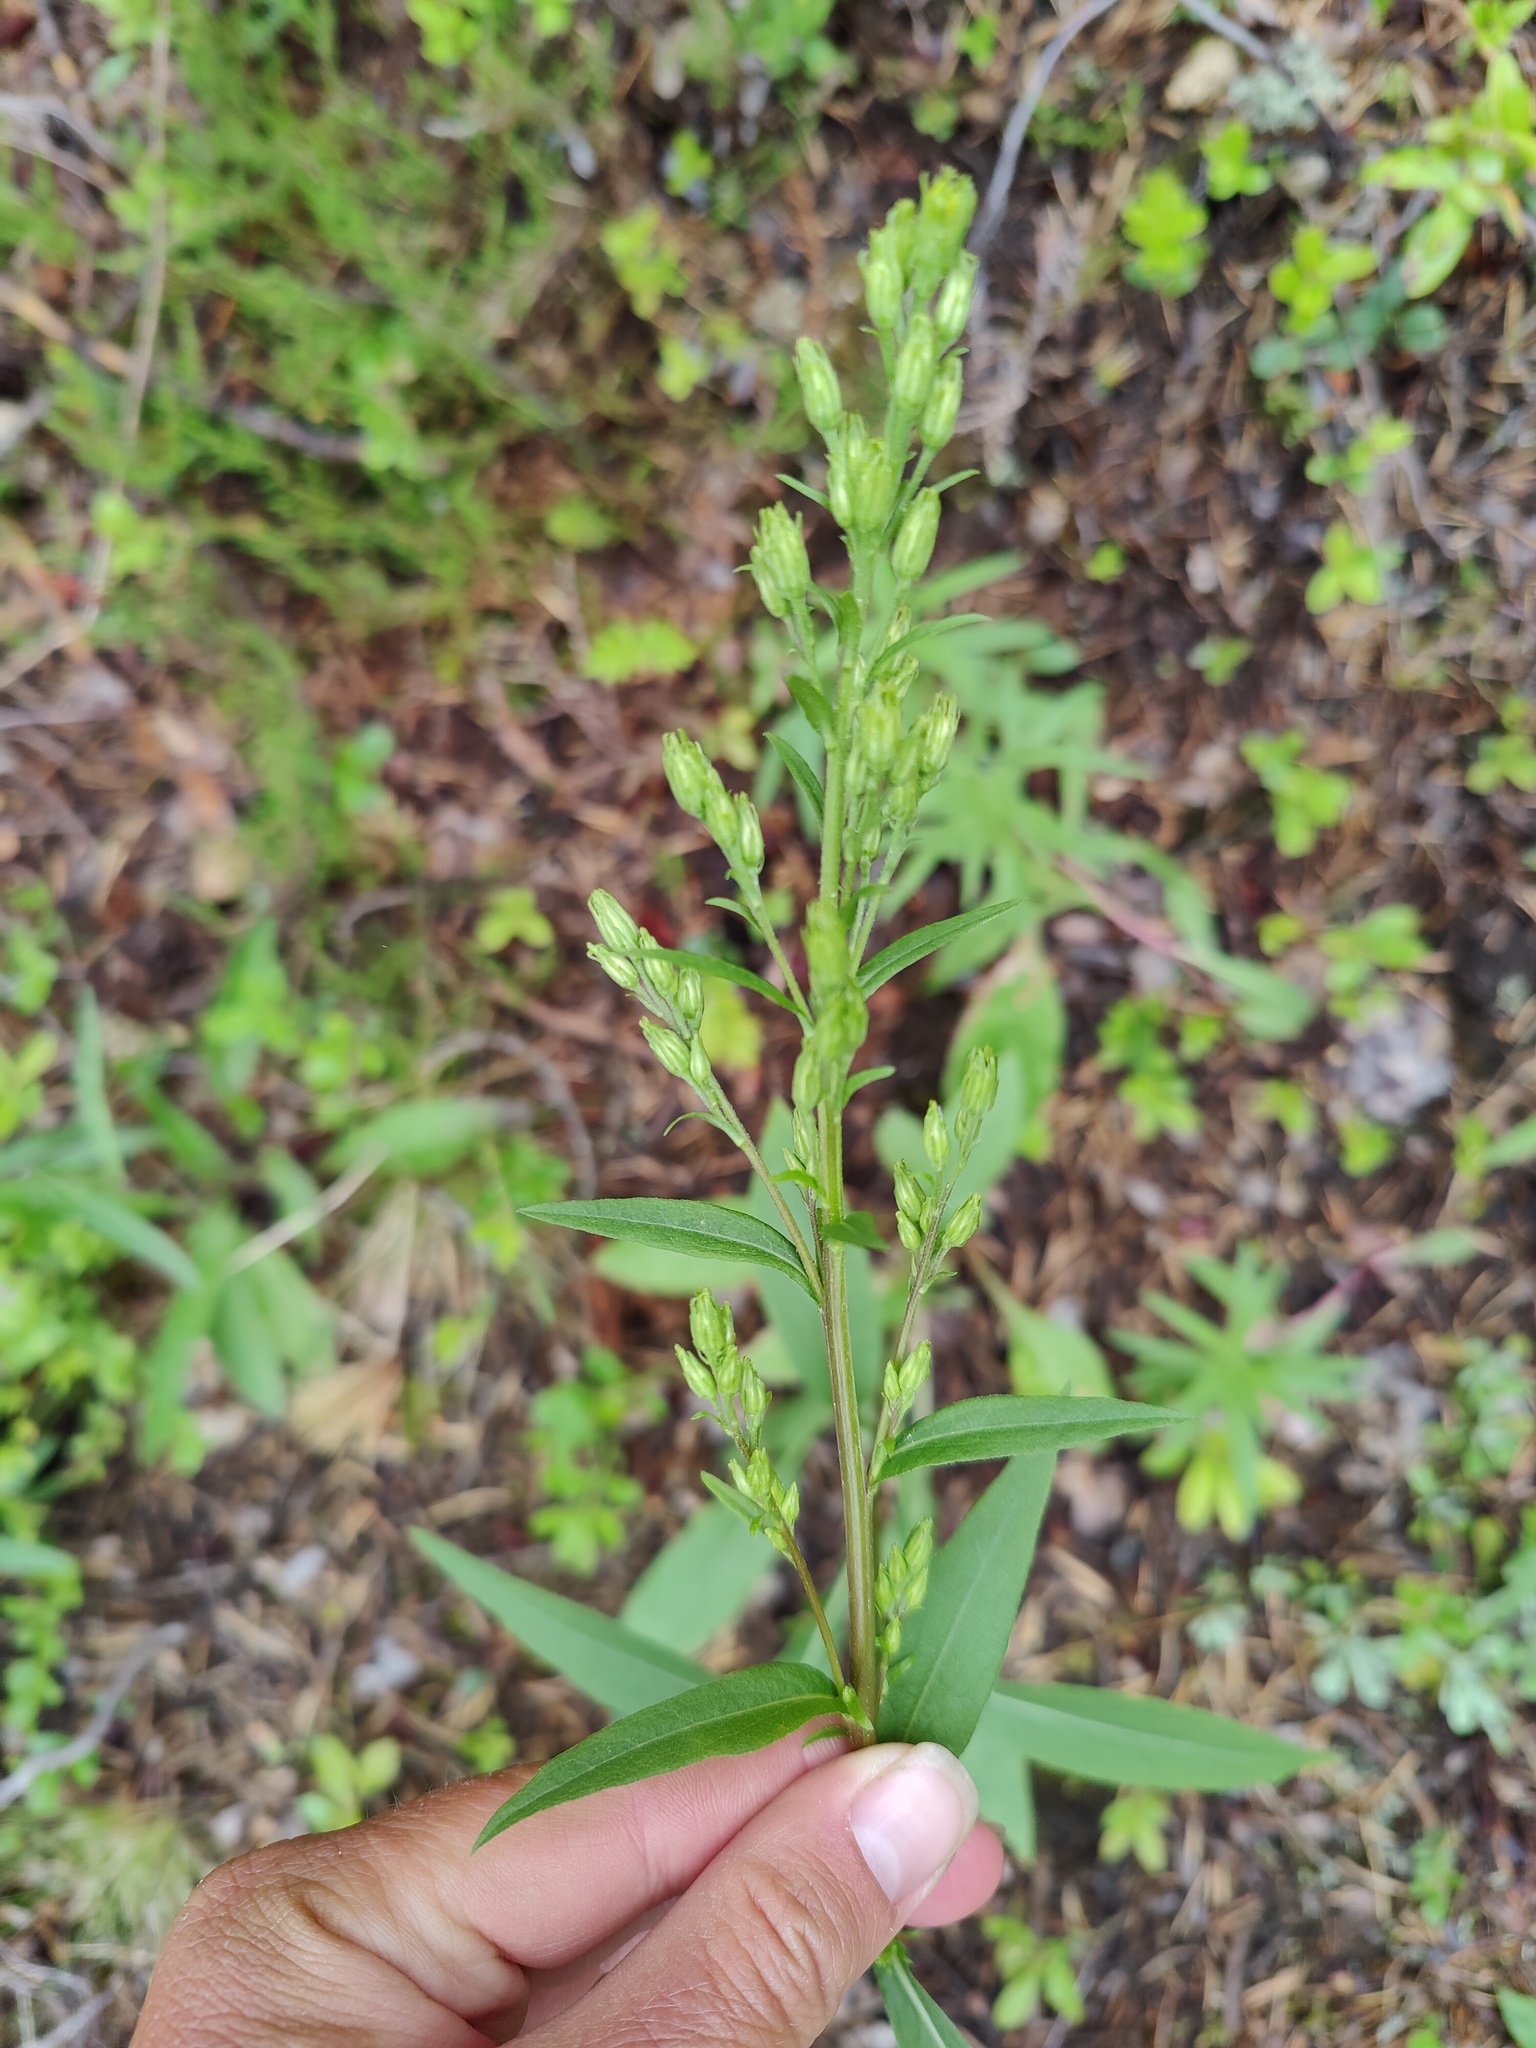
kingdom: Plantae
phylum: Tracheophyta
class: Magnoliopsida
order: Asterales
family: Asteraceae
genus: Solidago
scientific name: Solidago virgaurea
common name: Goldenrod
